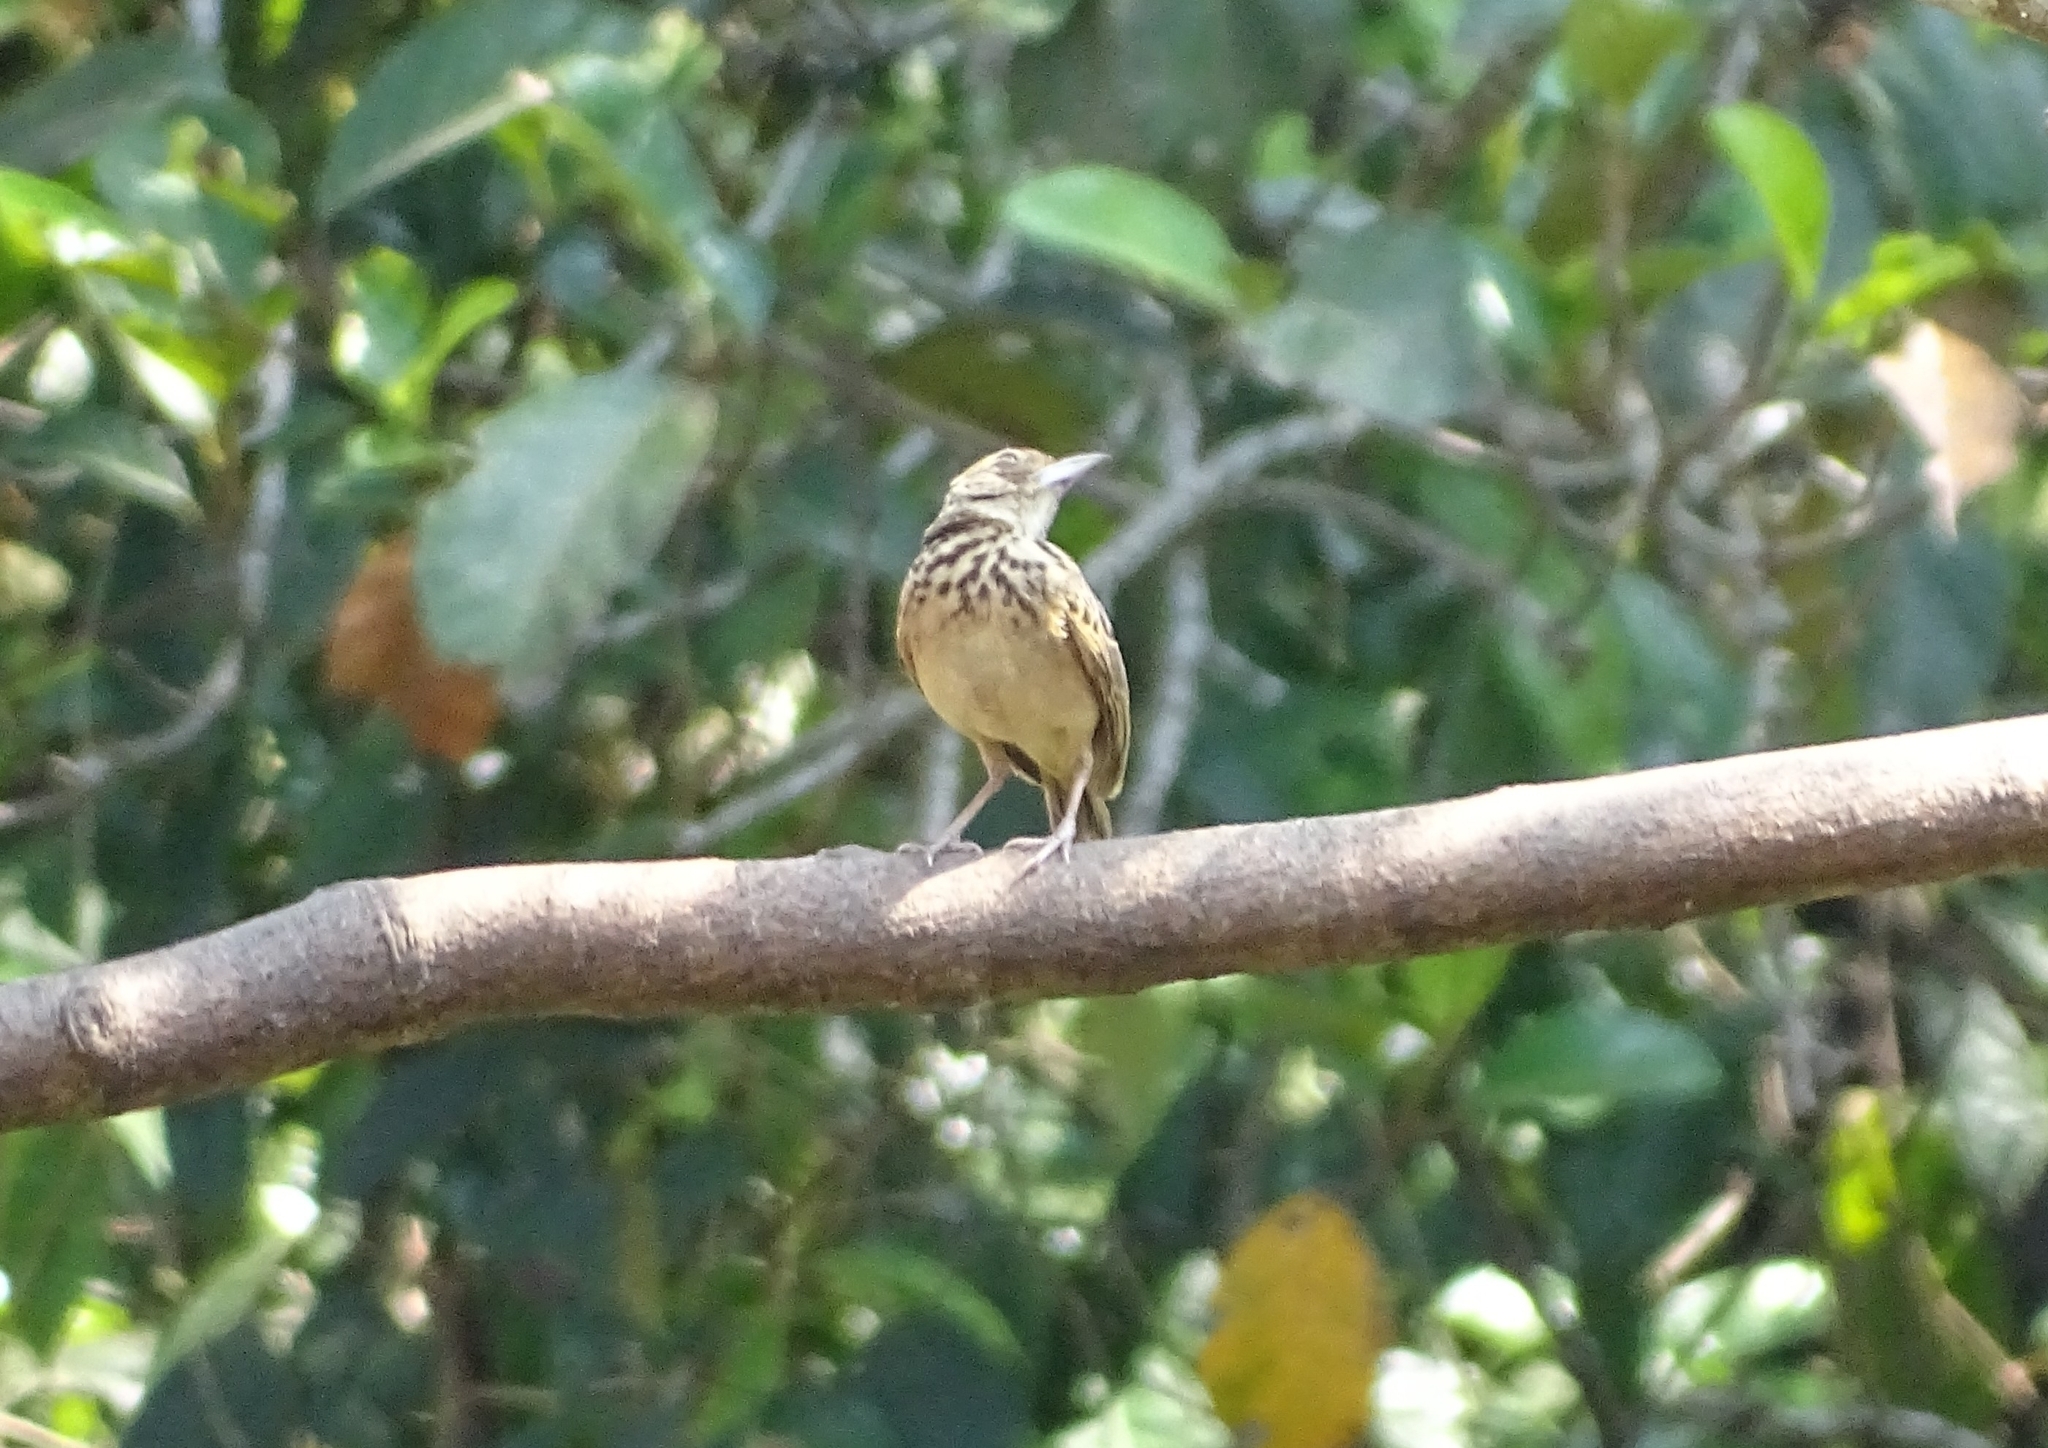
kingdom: Animalia
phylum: Chordata
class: Aves
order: Passeriformes
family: Alaudidae
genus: Mirafra
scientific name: Mirafra affinis
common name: Jerdon's bushlark
